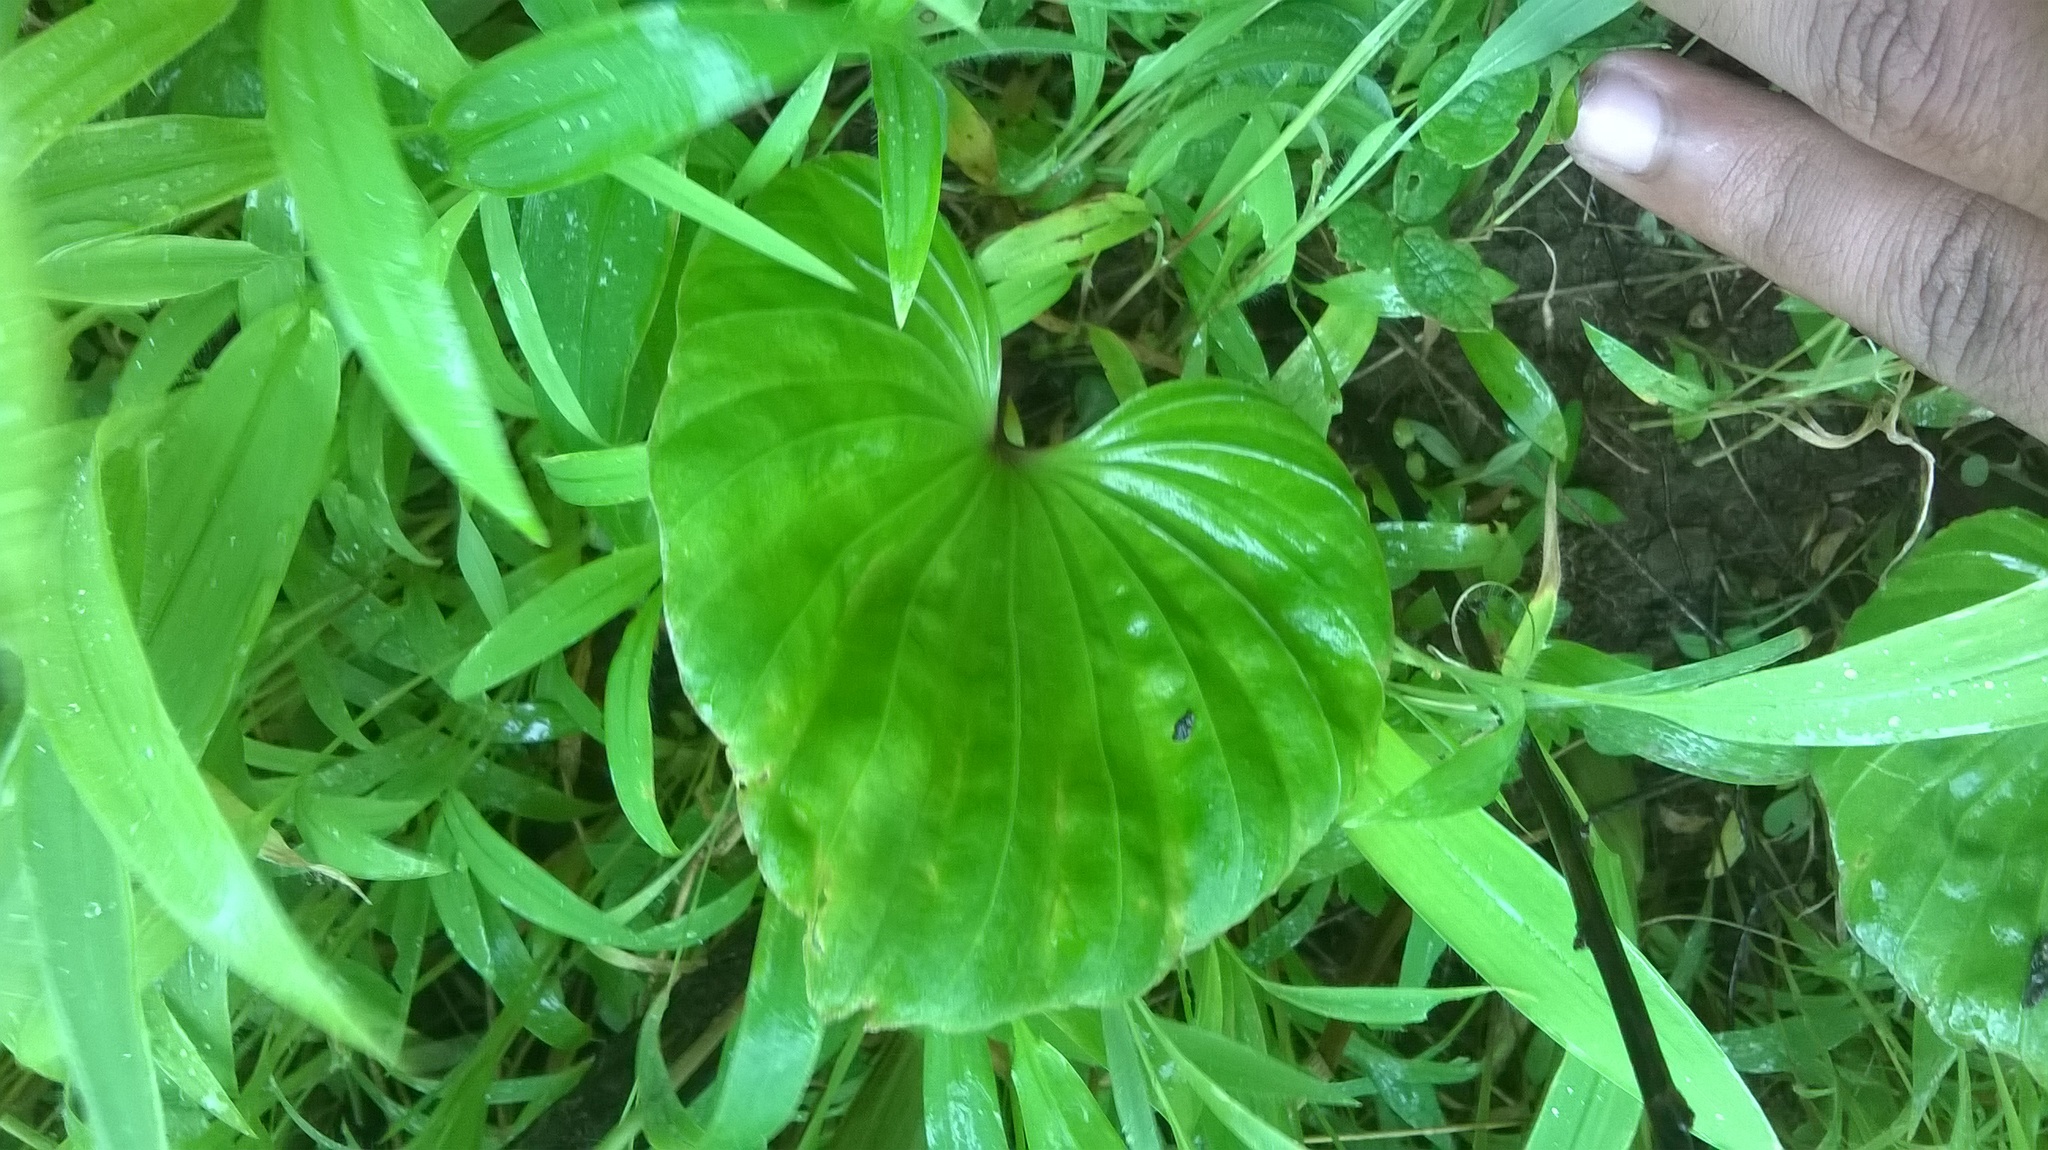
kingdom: Plantae
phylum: Tracheophyta
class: Liliopsida
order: Asparagales
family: Orchidaceae
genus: Nervilia
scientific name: Nervilia concolor
